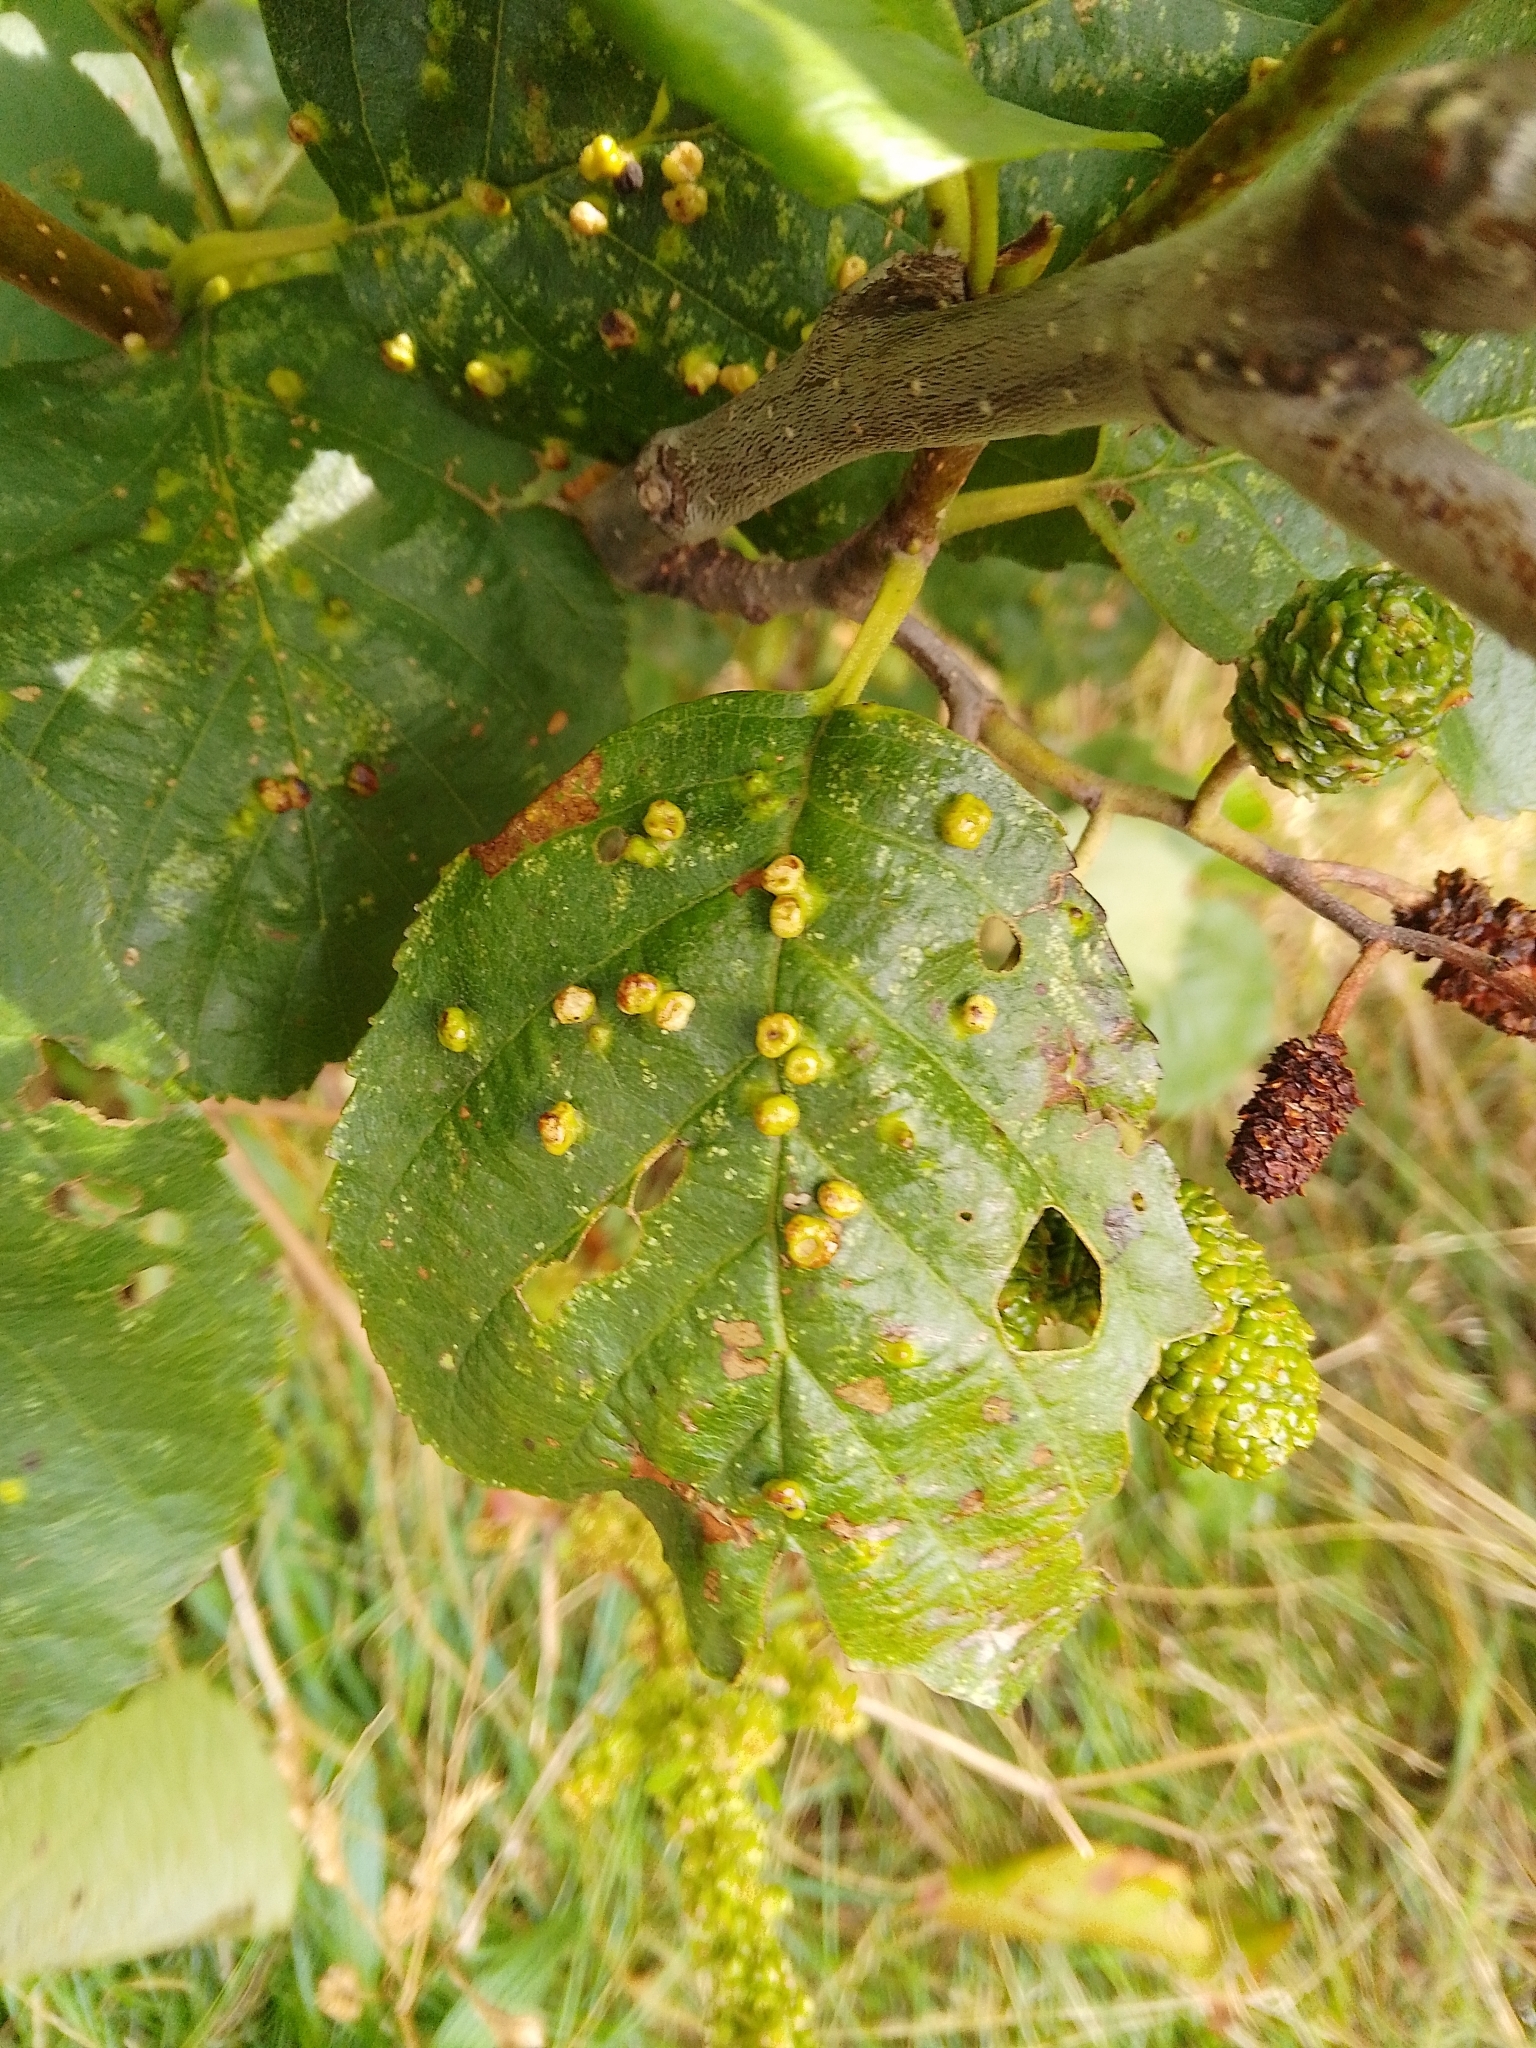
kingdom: Animalia
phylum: Arthropoda
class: Arachnida
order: Trombidiformes
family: Eriophyidae
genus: Eriophyes
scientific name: Eriophyes laevis
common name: Alder leaf gall mite
